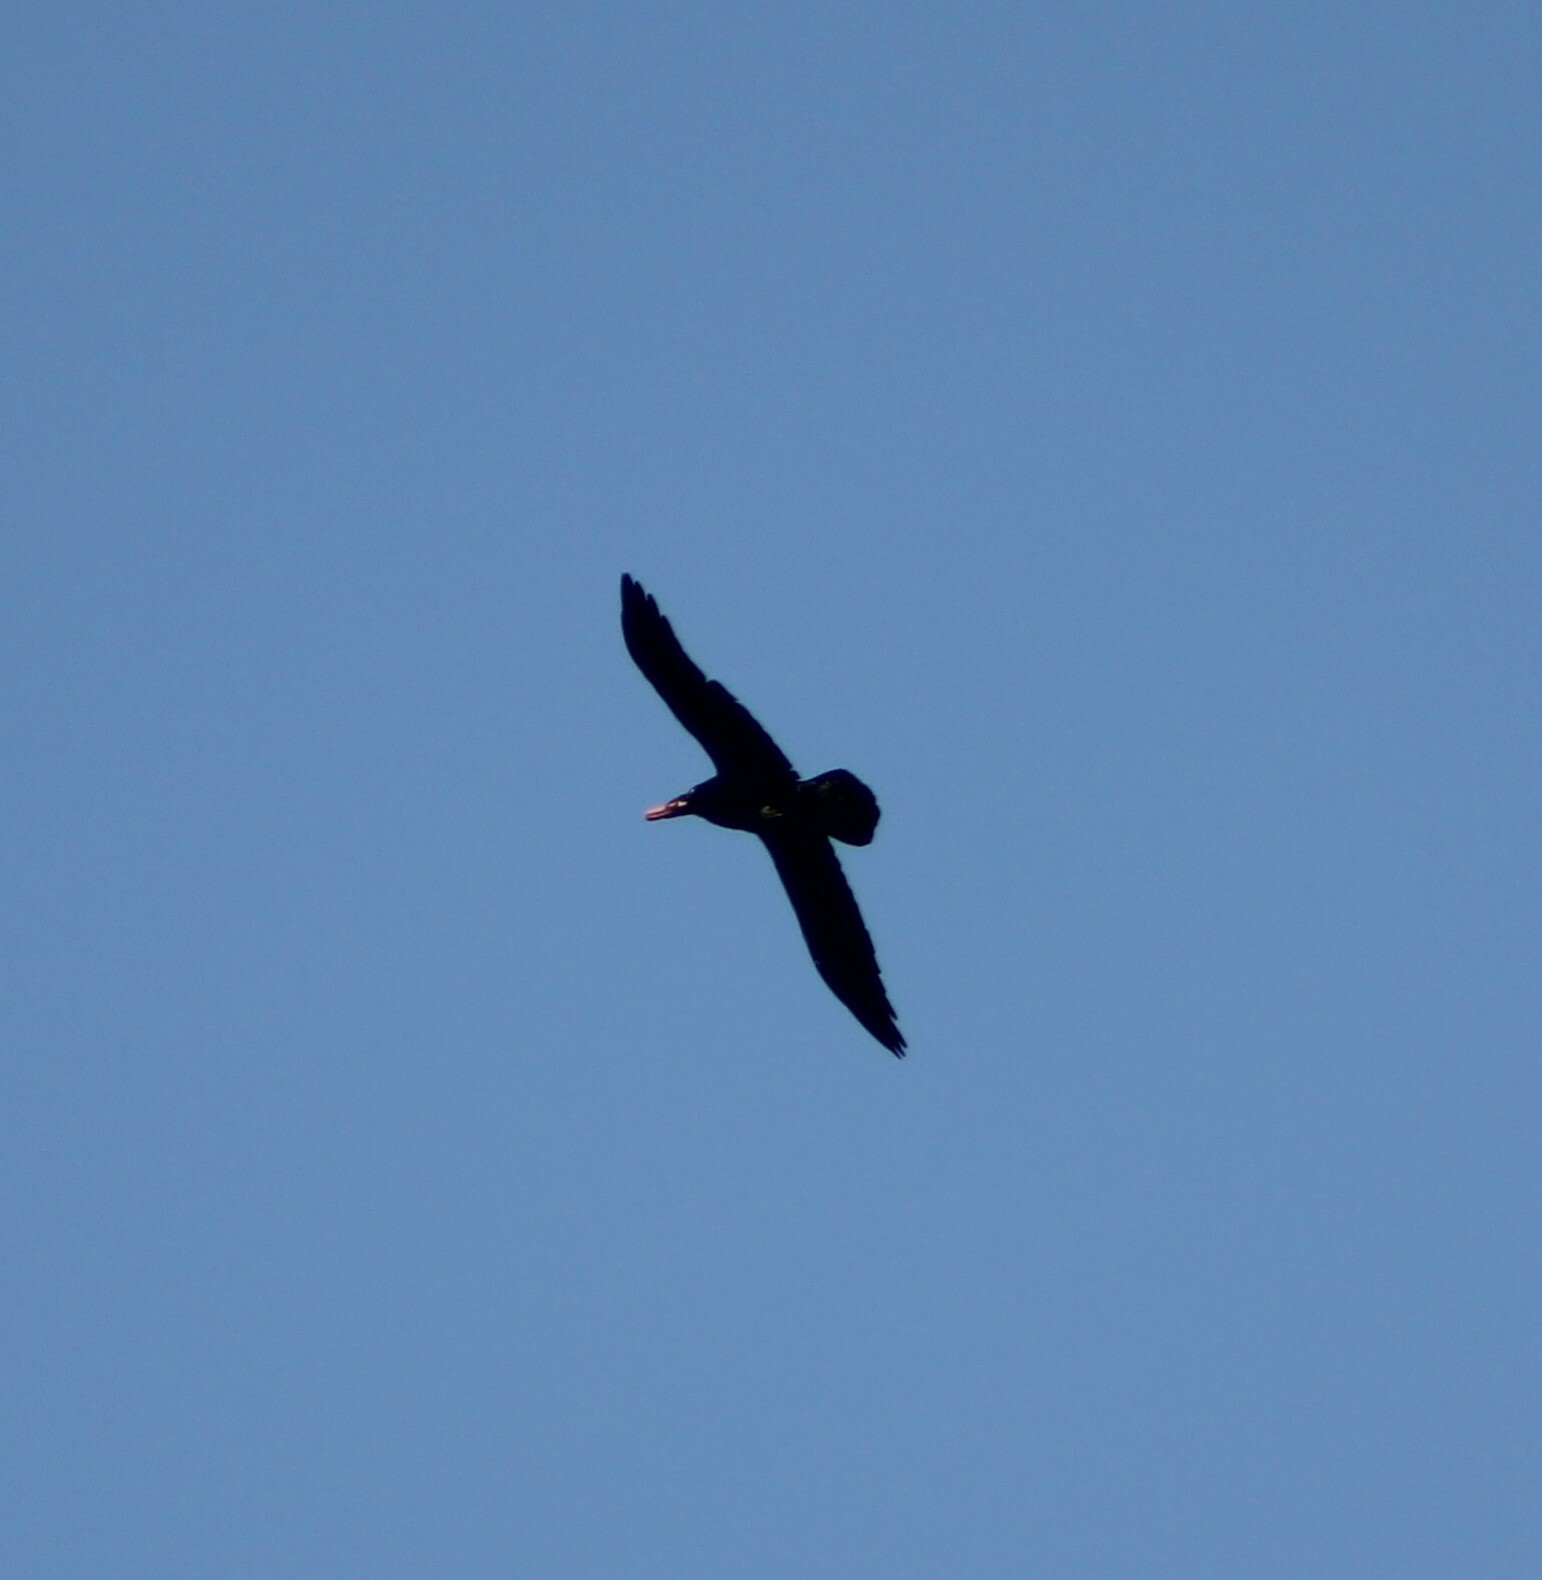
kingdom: Animalia
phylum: Chordata
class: Aves
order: Passeriformes
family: Corvidae
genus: Corvus
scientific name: Corvus corax
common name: Common raven
